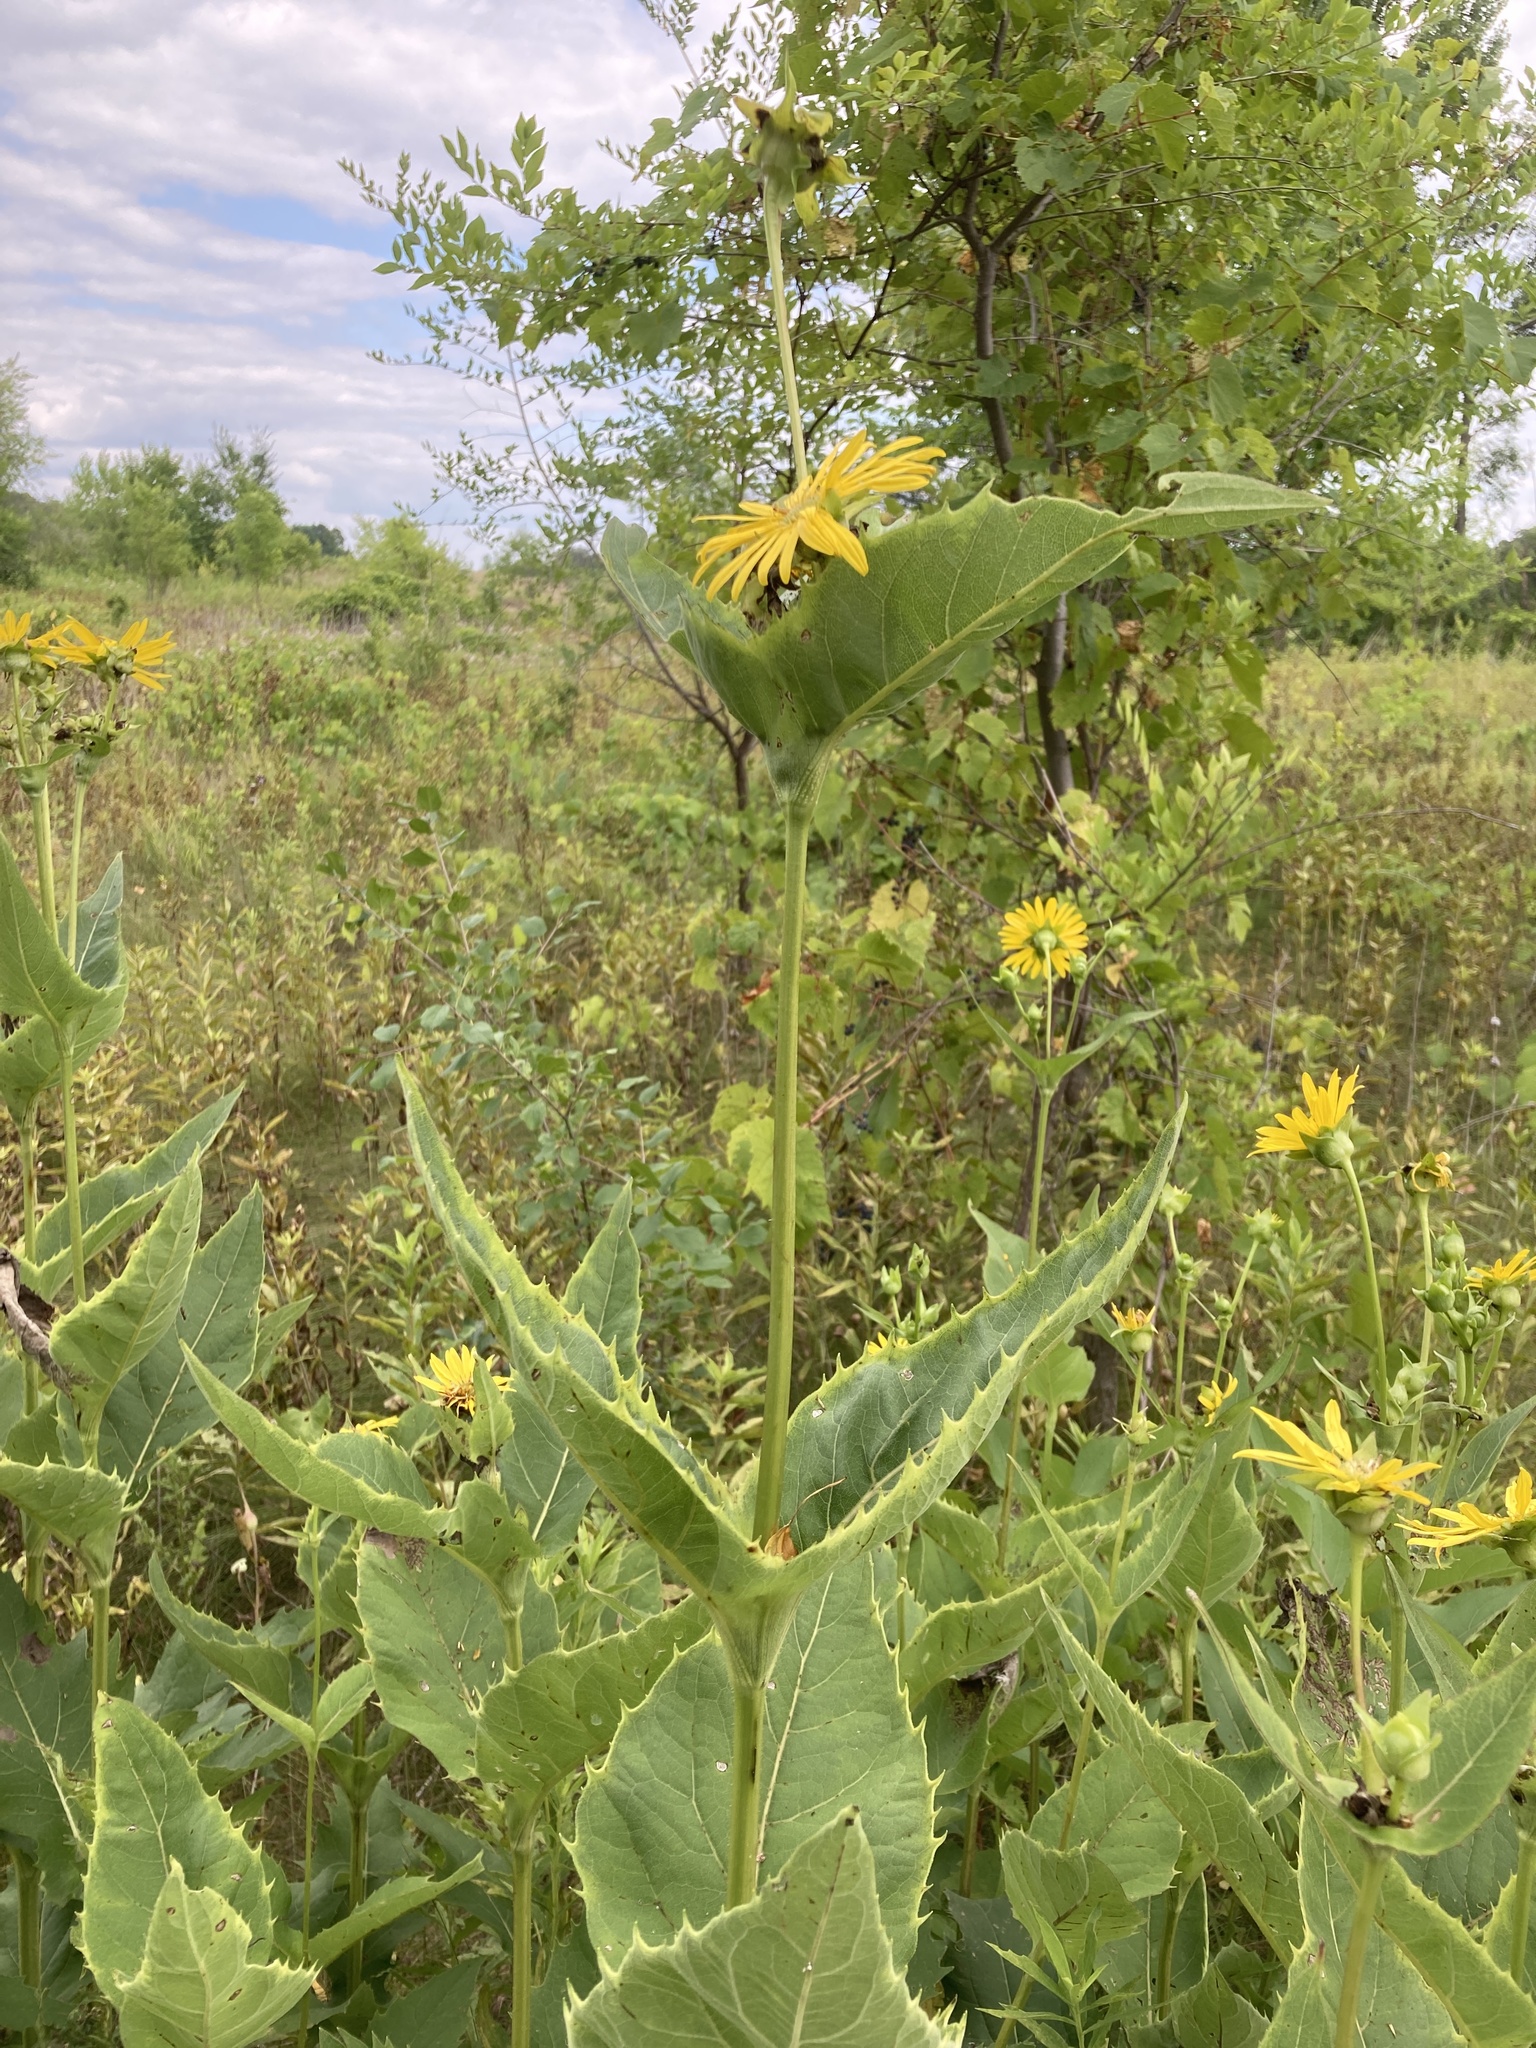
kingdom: Plantae
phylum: Tracheophyta
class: Magnoliopsida
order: Asterales
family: Asteraceae
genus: Silphium
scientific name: Silphium perfoliatum
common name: Cup-plant
